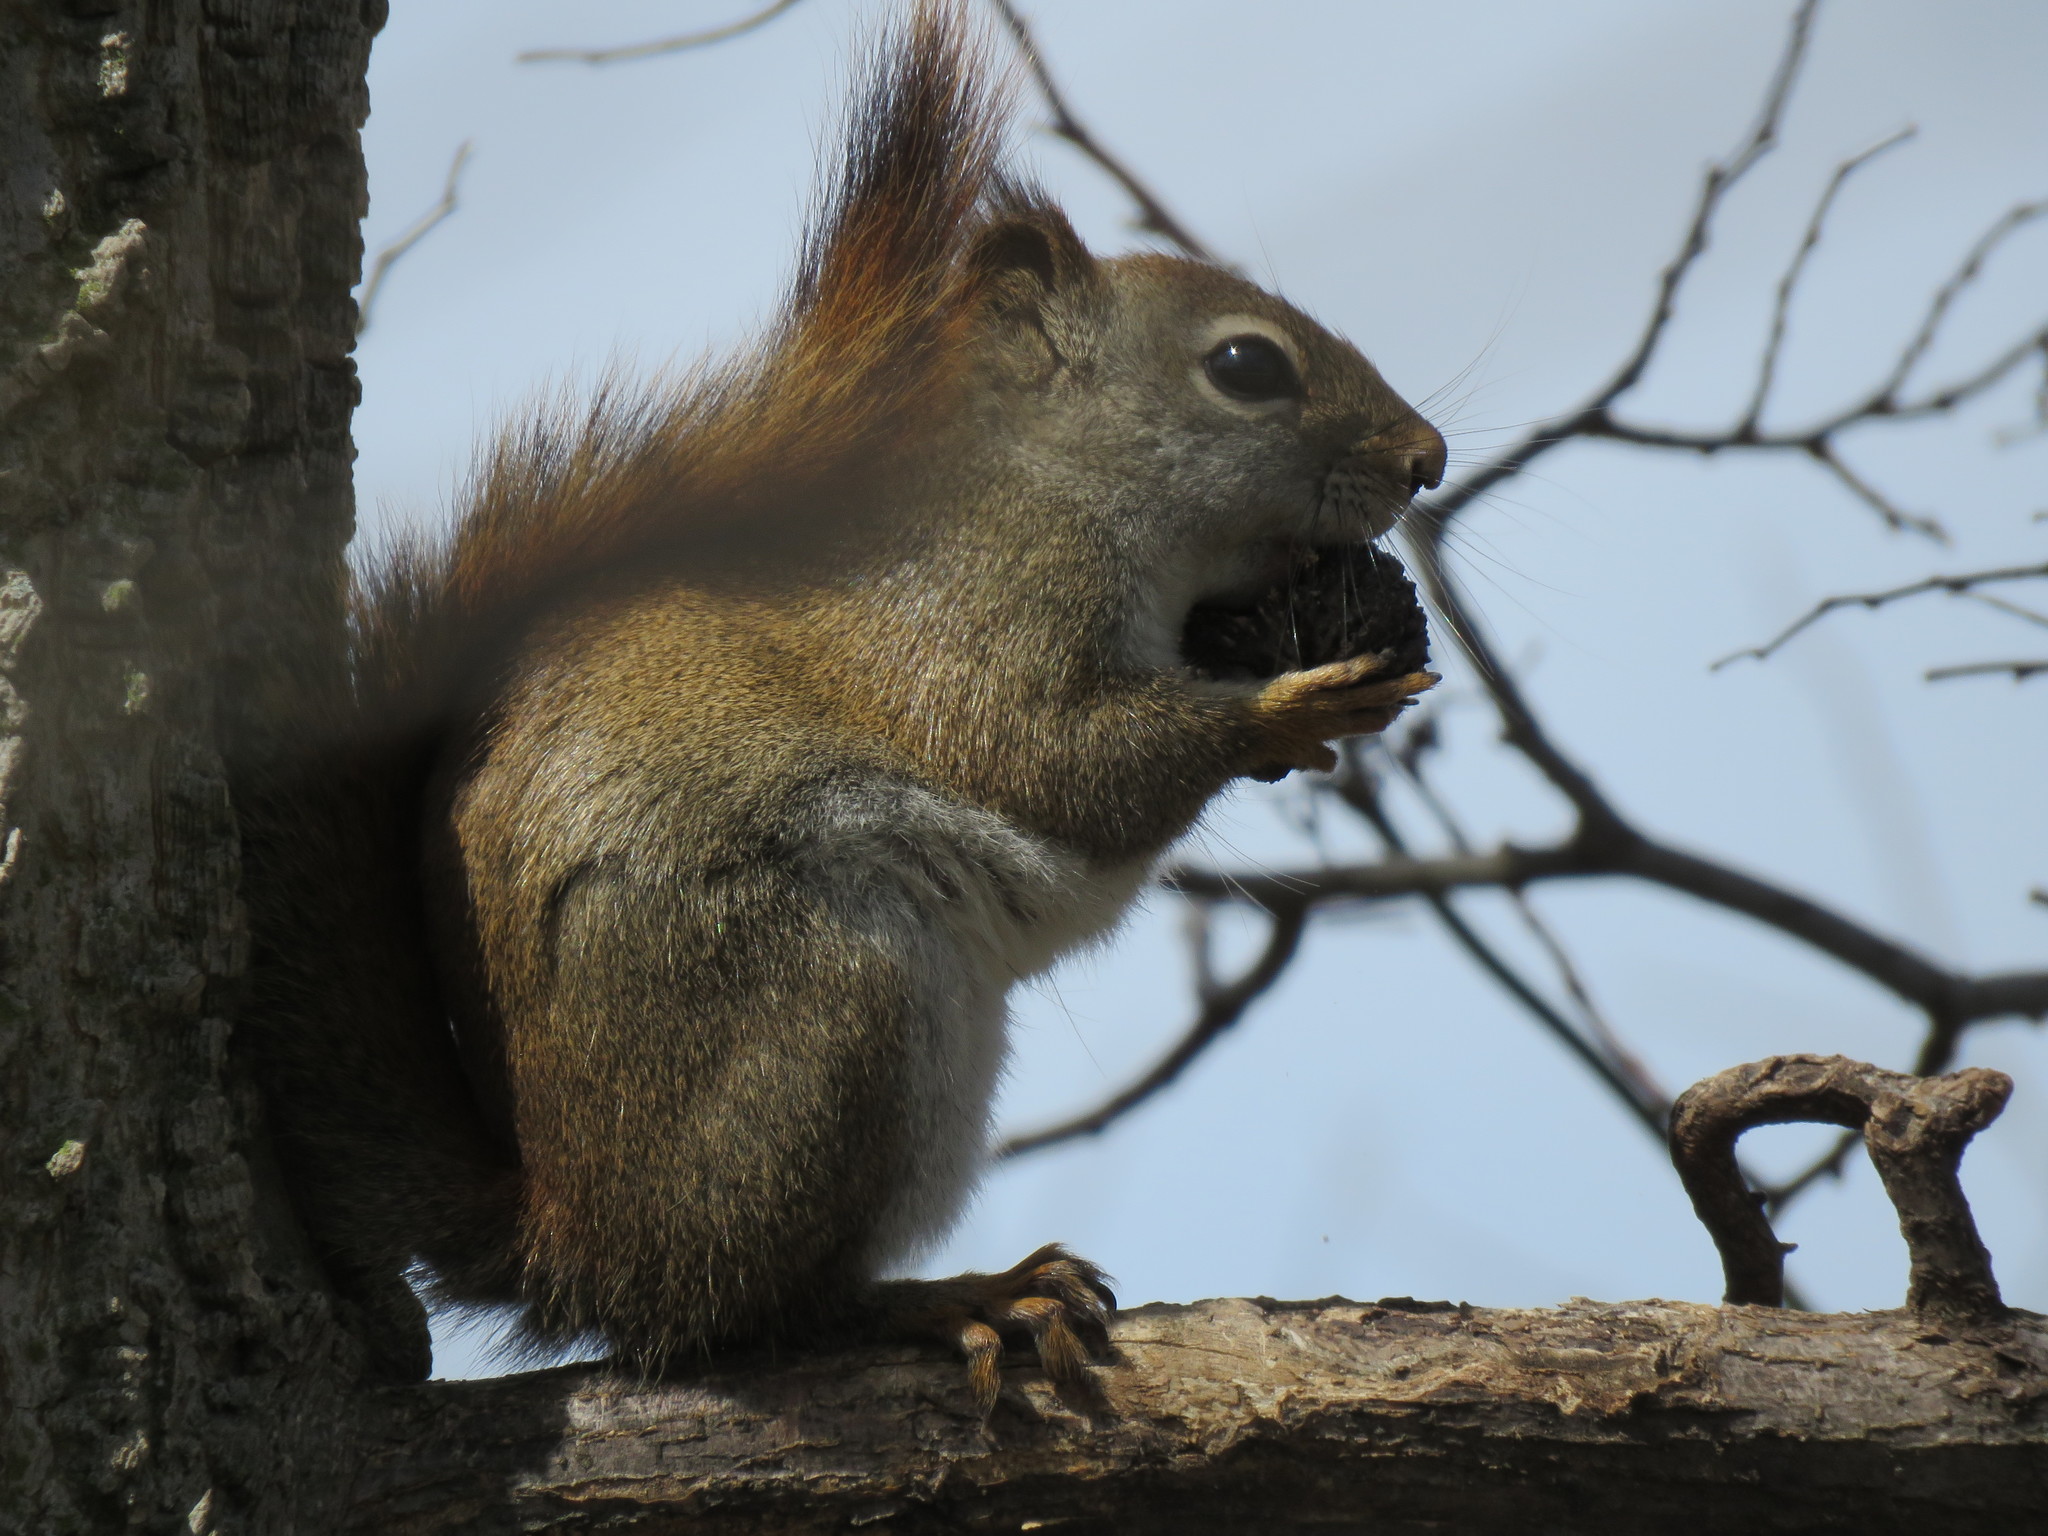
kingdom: Animalia
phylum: Chordata
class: Mammalia
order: Rodentia
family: Sciuridae
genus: Tamiasciurus
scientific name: Tamiasciurus hudsonicus
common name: Red squirrel
